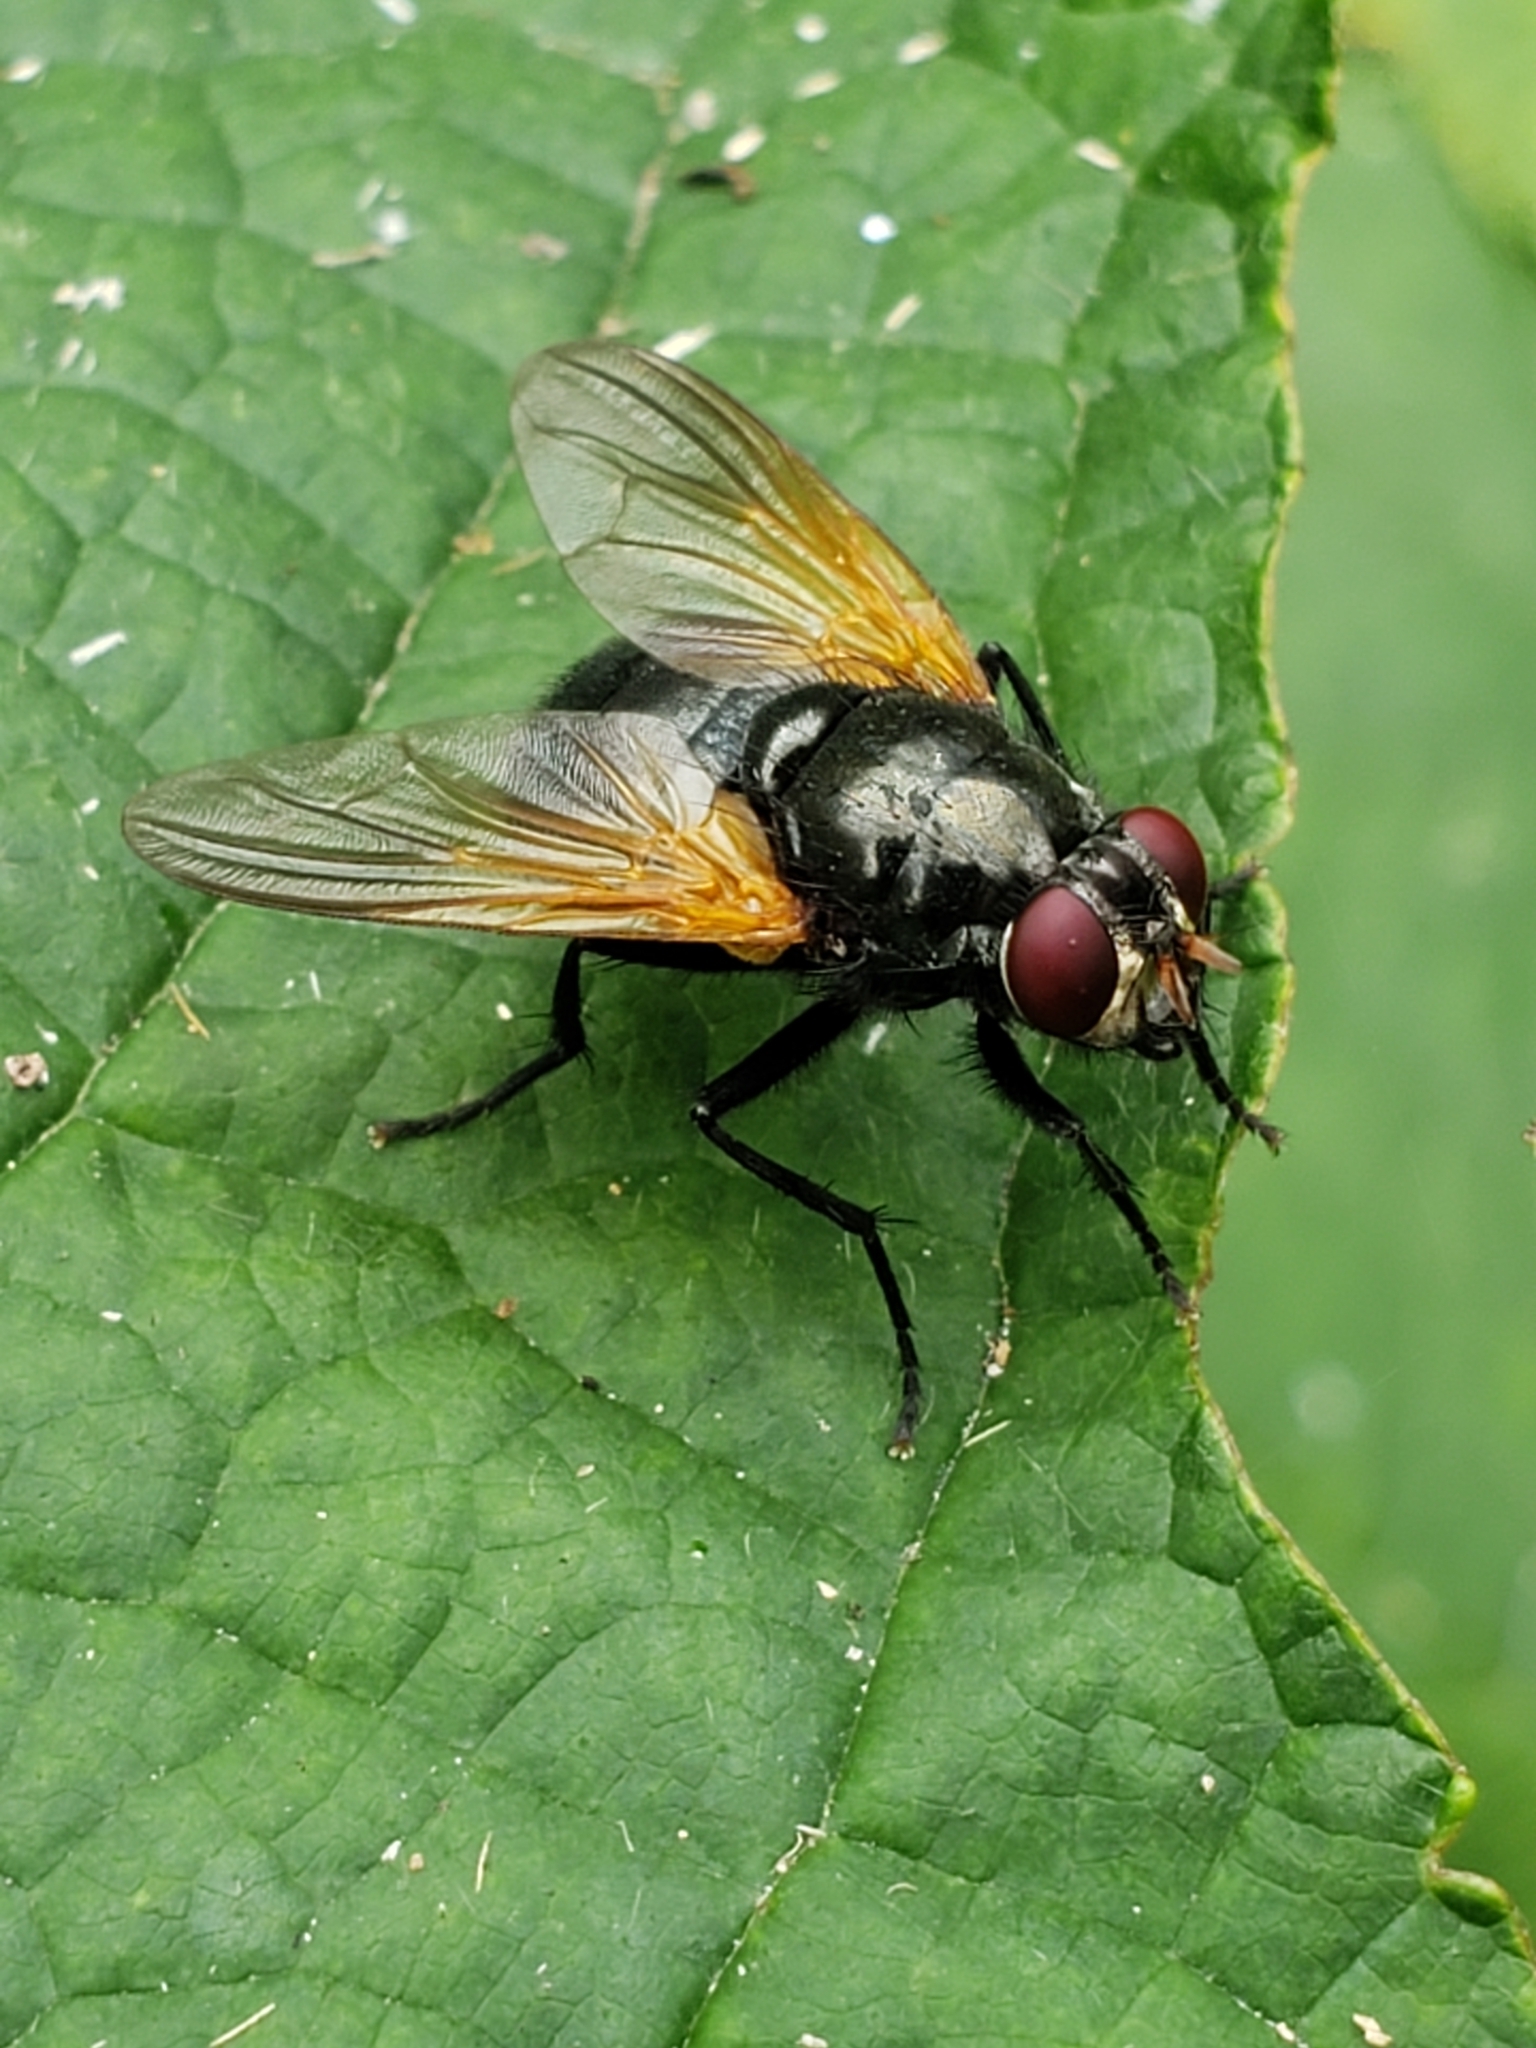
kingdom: Animalia
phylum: Arthropoda
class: Insecta
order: Diptera
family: Muscidae
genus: Mesembrina
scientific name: Mesembrina latreillii
